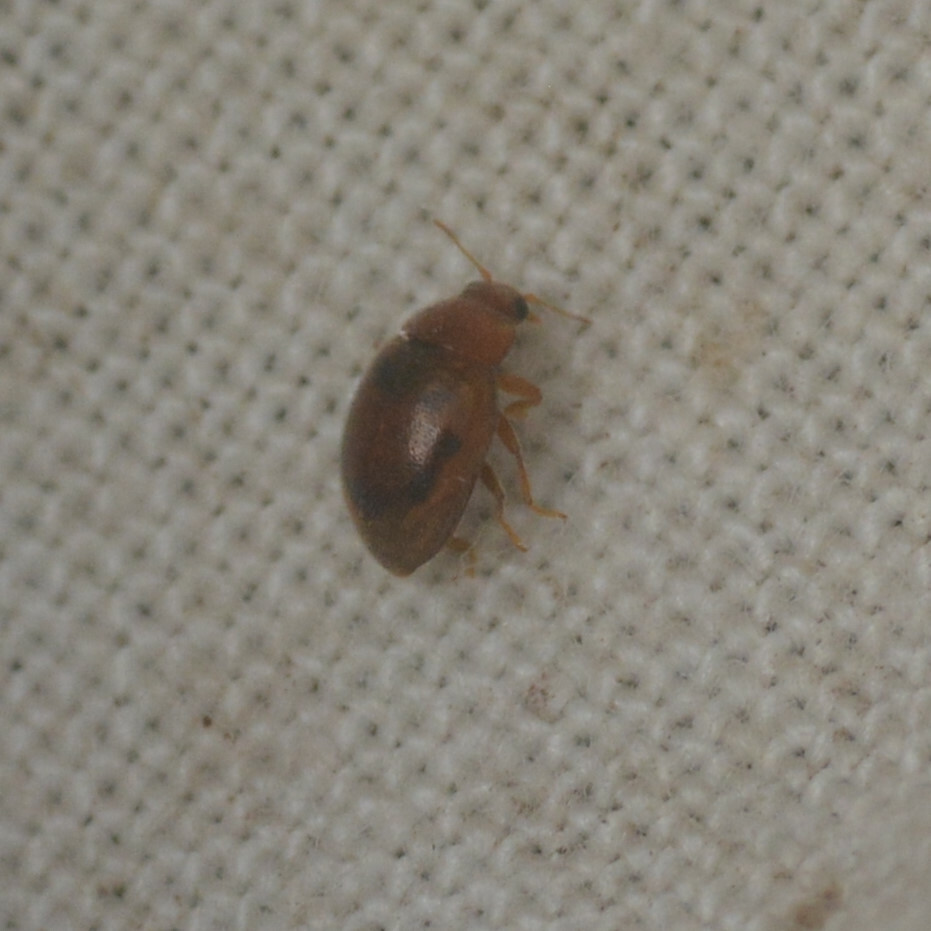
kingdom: Animalia
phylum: Arthropoda
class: Insecta
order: Coleoptera
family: Coccinellidae
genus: Rhyzobius
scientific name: Rhyzobius litura
